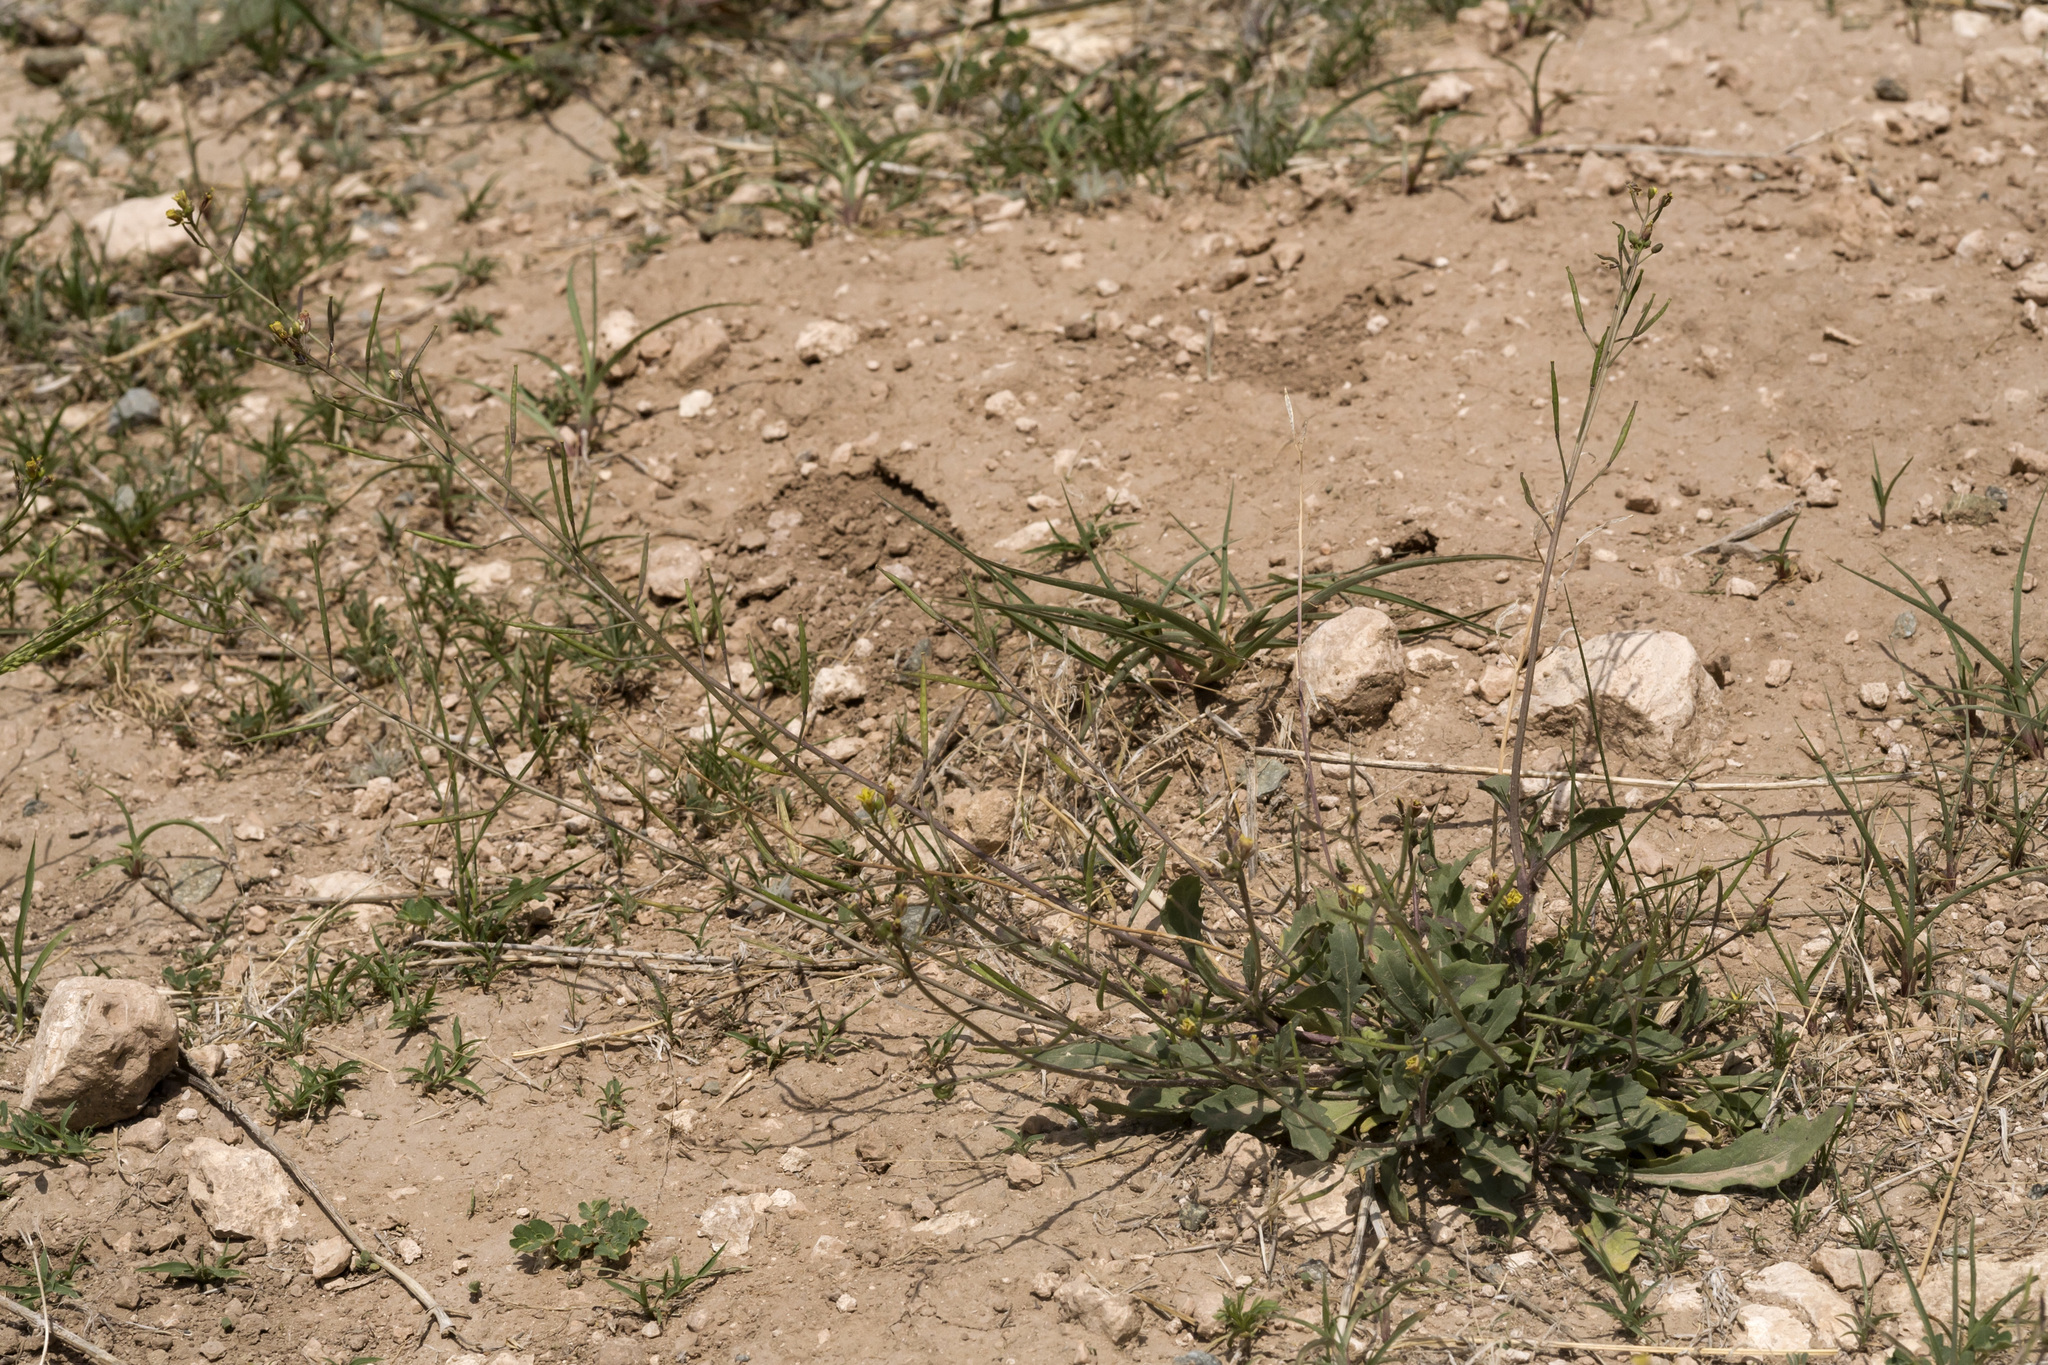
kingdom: Plantae
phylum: Tracheophyta
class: Magnoliopsida
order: Brassicales
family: Brassicaceae
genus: Diplotaxis
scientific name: Diplotaxis muralis
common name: Annual wall-rocket
